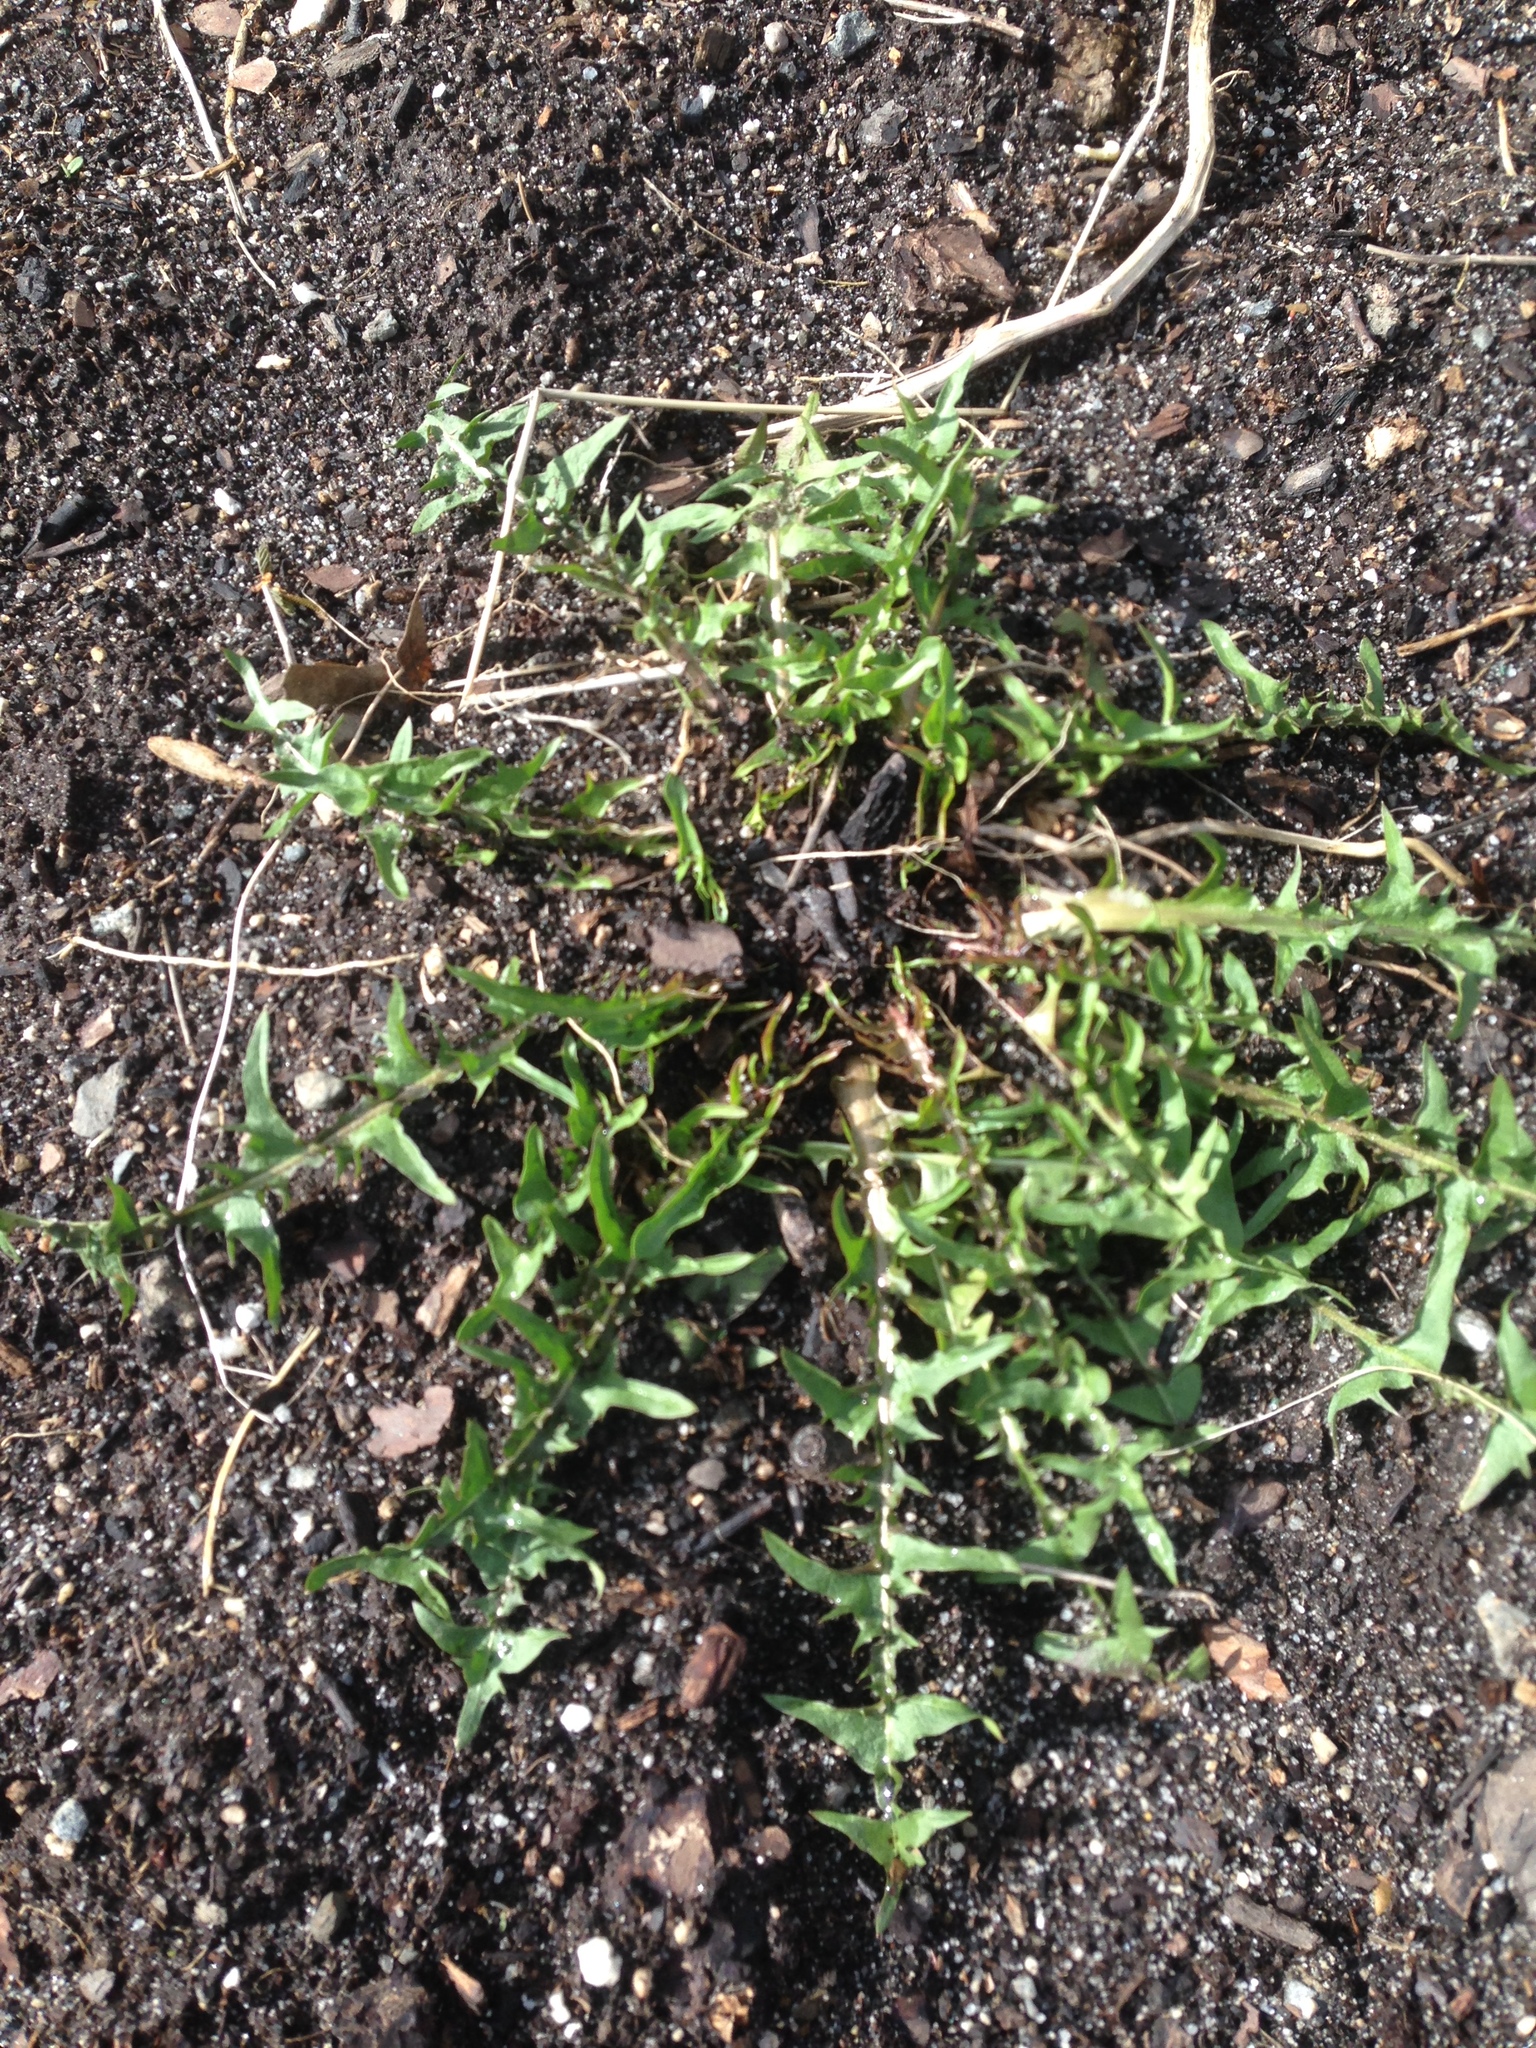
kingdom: Plantae
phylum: Tracheophyta
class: Magnoliopsida
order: Asterales
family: Asteraceae
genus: Taraxacum
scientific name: Taraxacum officinale
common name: Common dandelion
